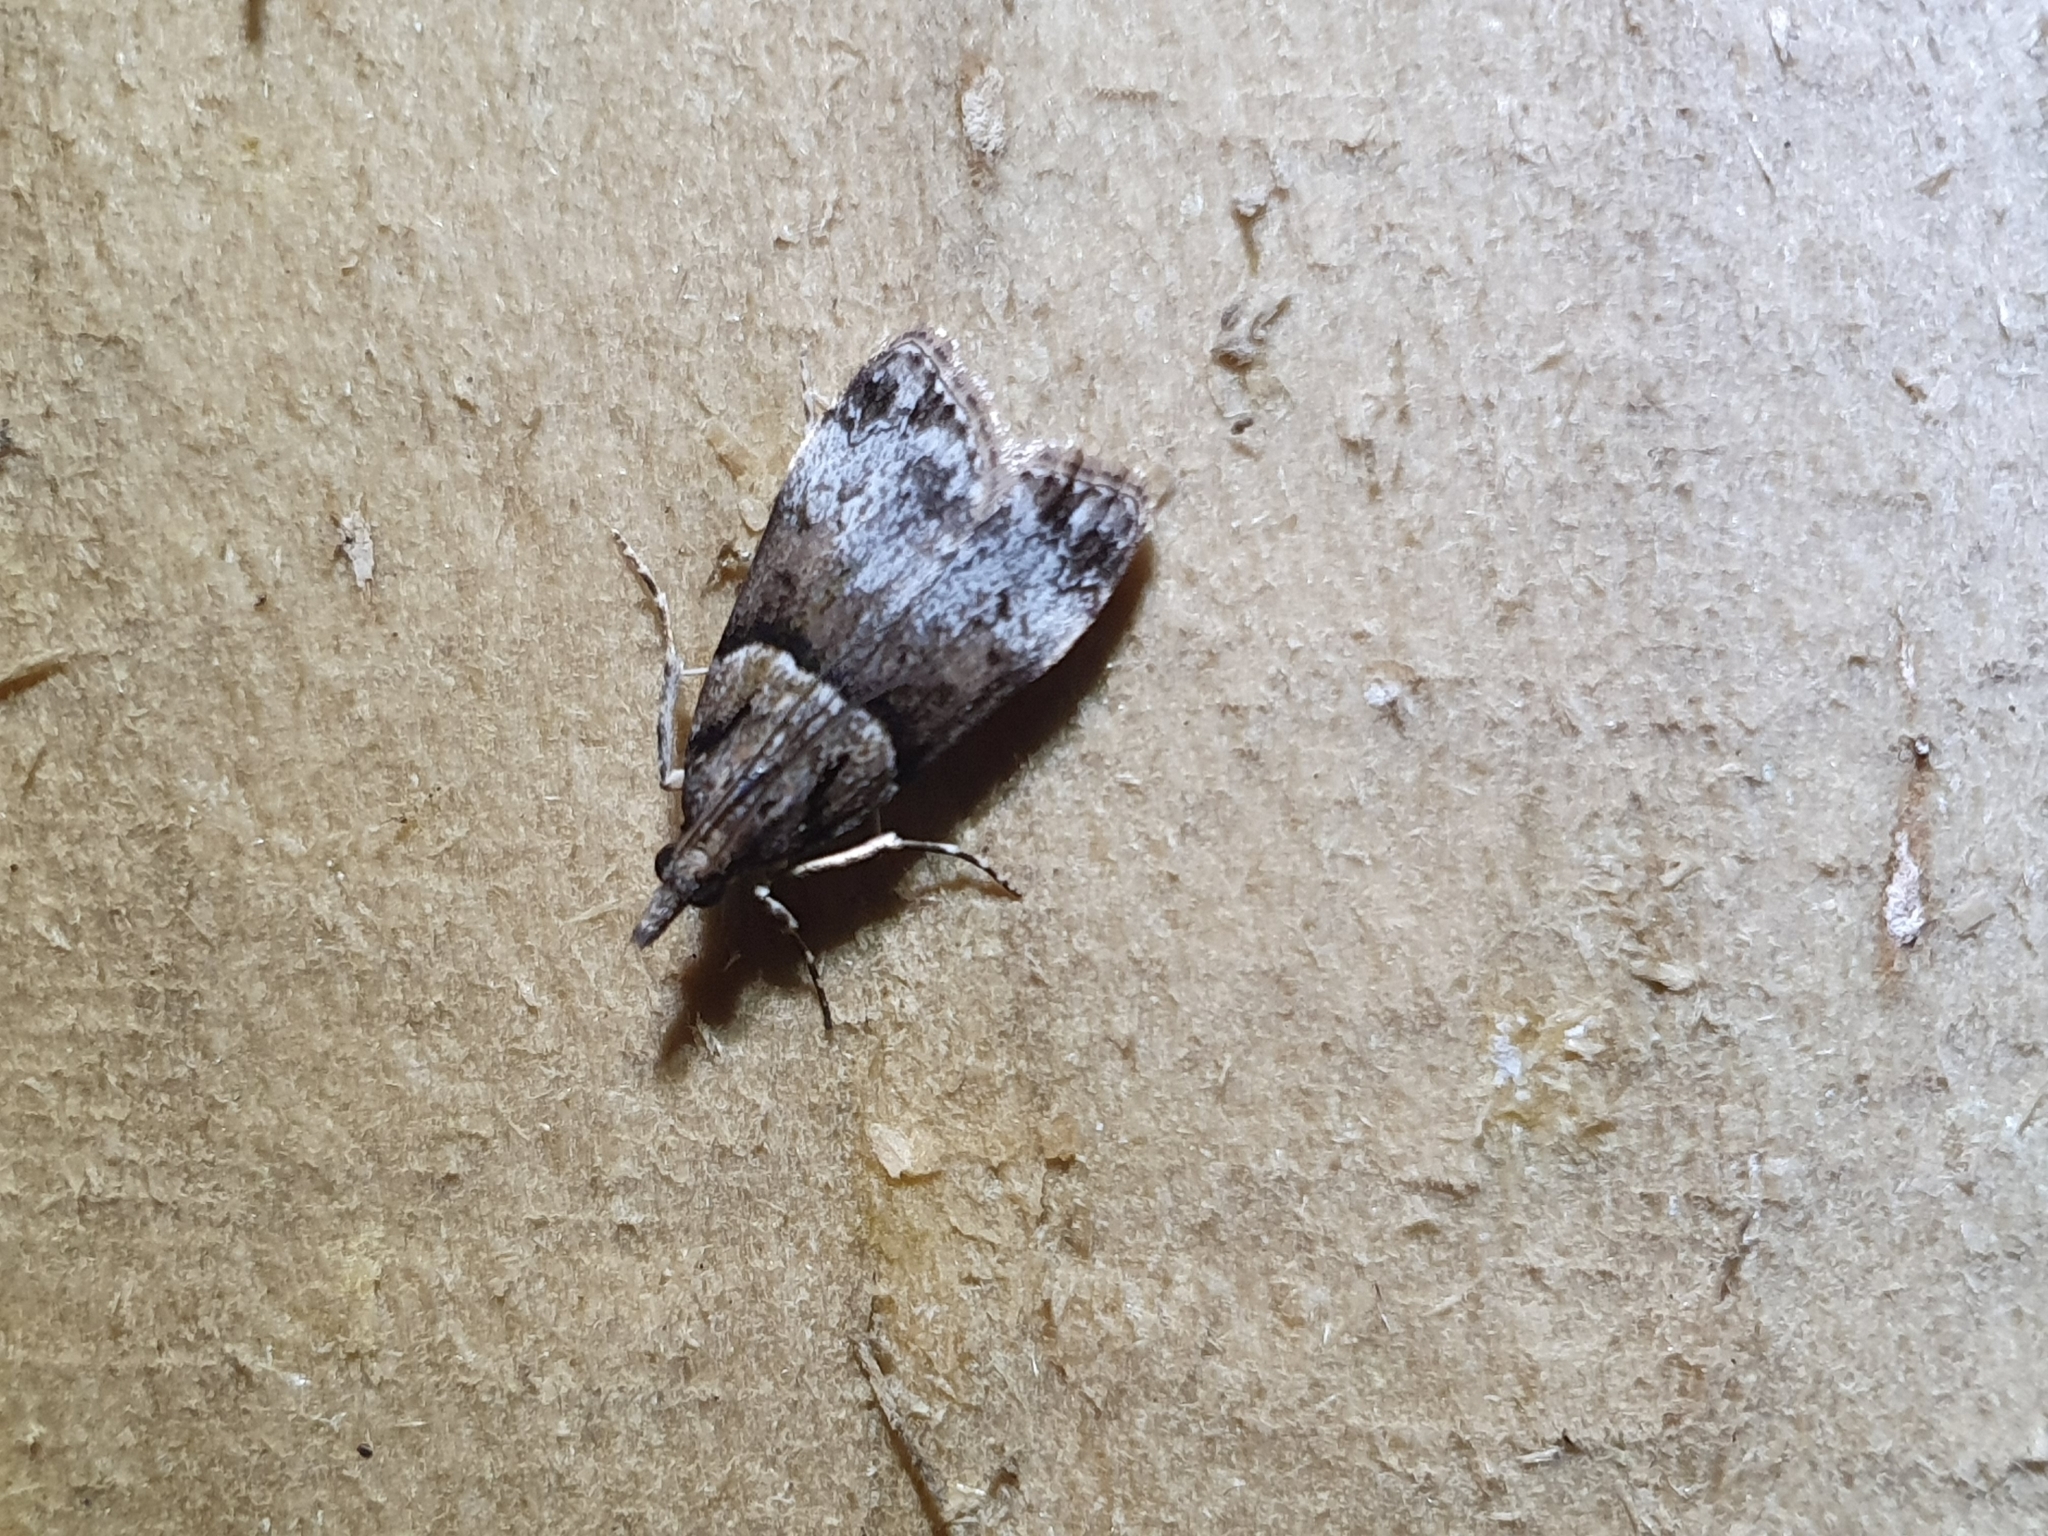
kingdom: Animalia
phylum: Arthropoda
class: Insecta
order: Lepidoptera
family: Crambidae
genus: Eudonia
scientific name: Eudonia colpota
